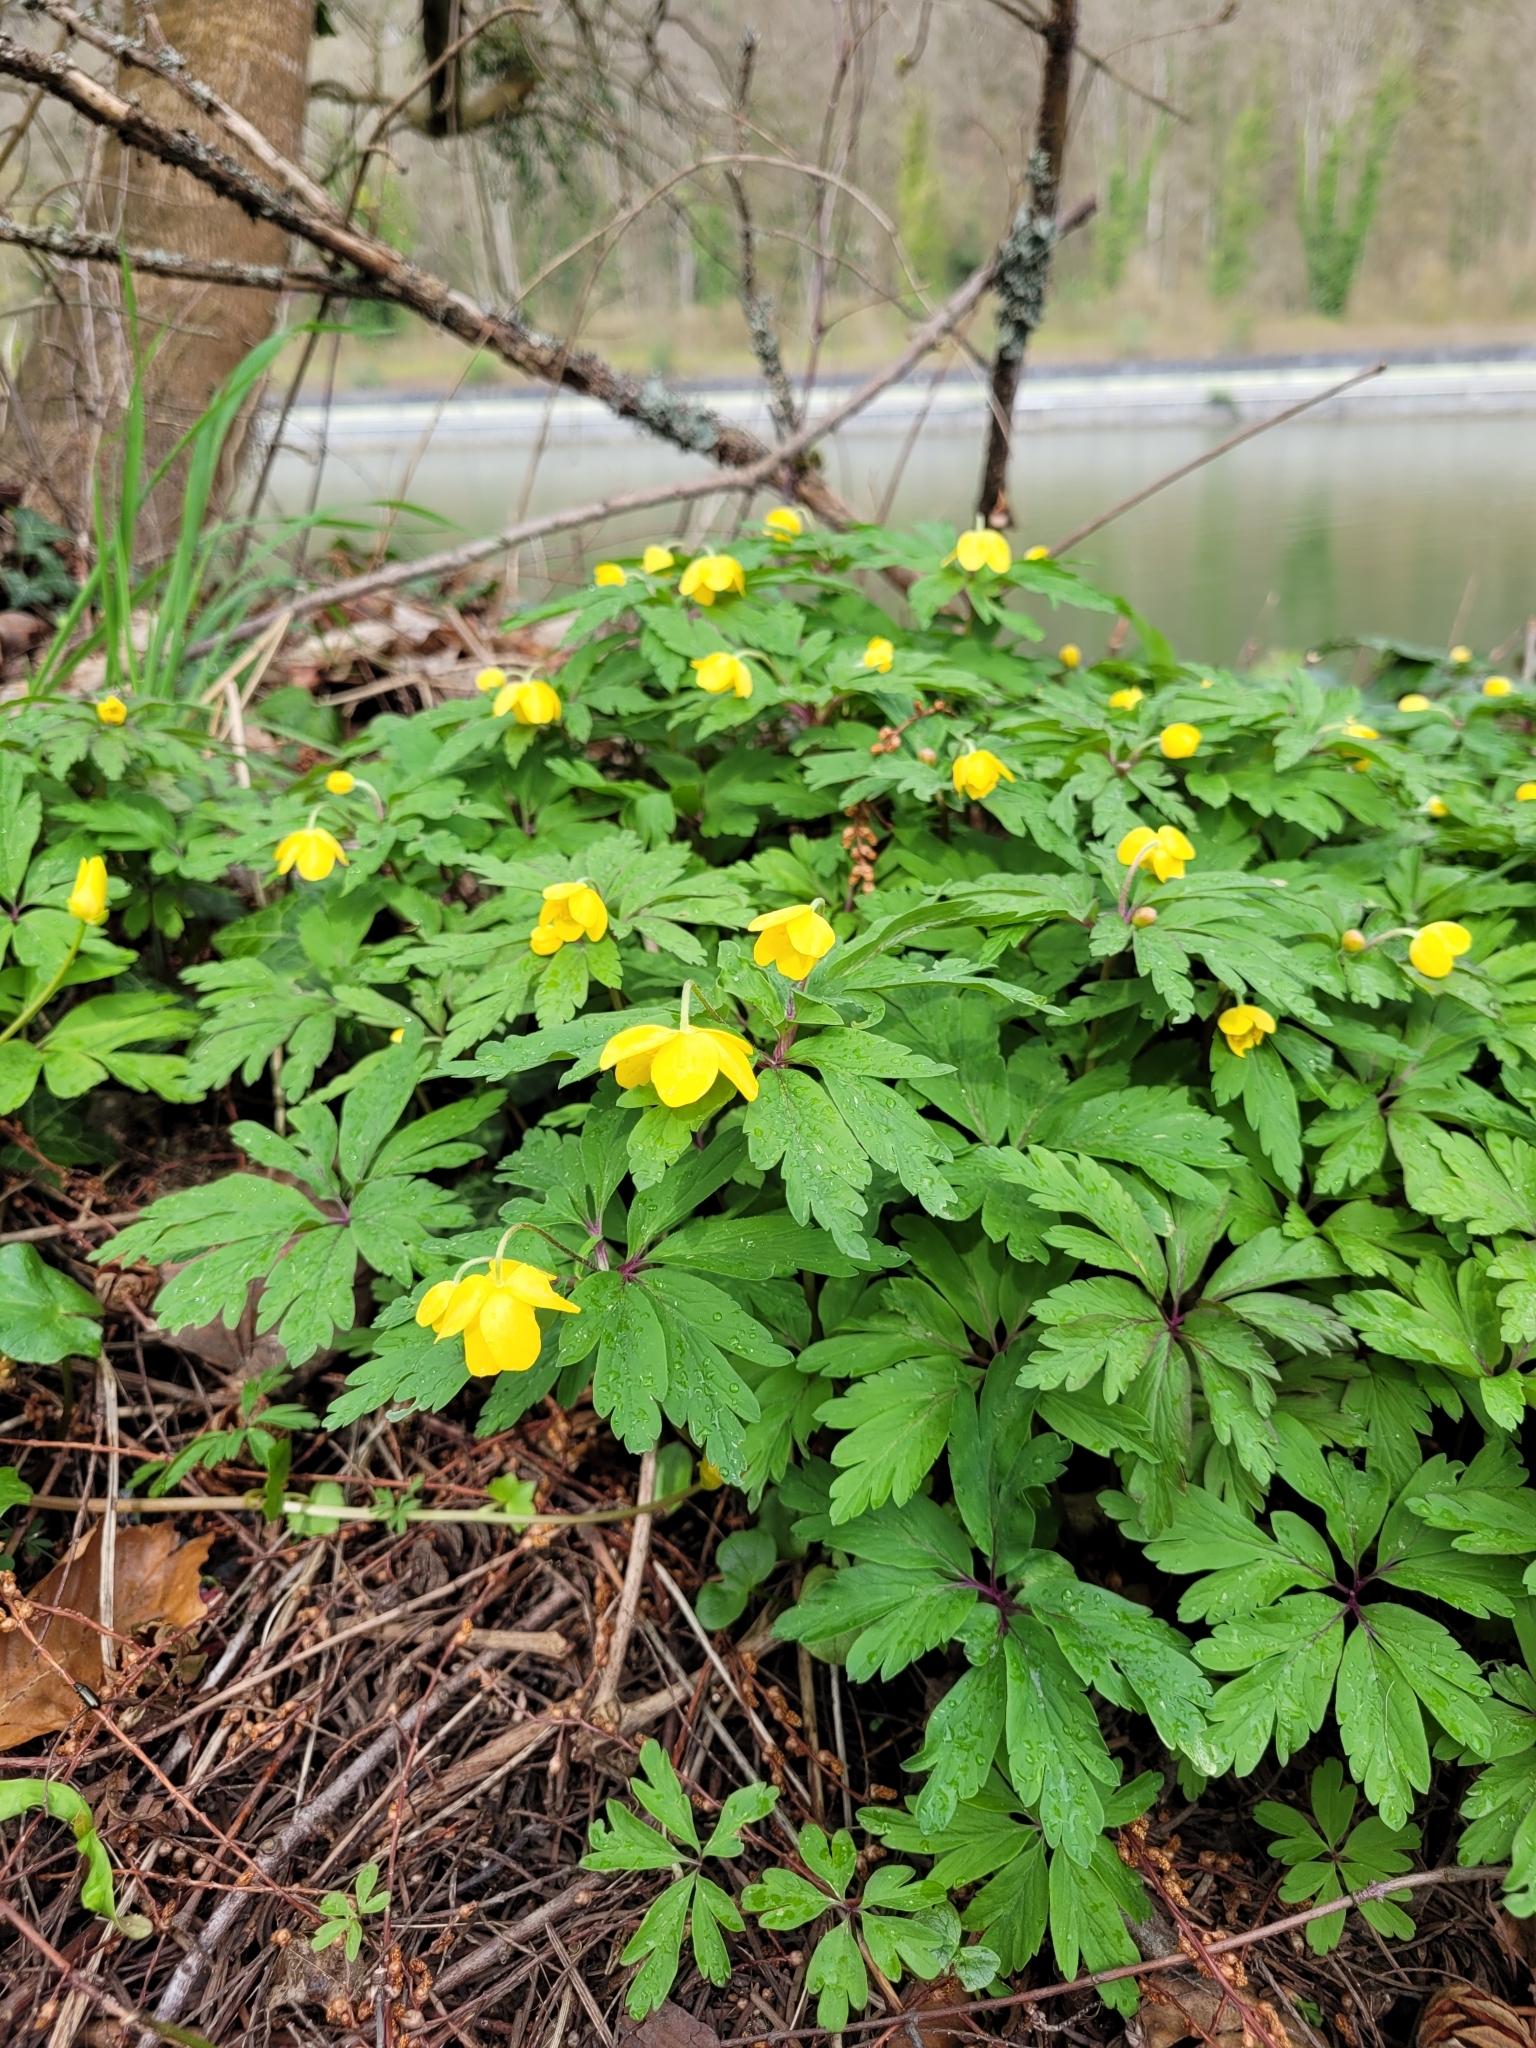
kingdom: Plantae
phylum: Tracheophyta
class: Magnoliopsida
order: Ranunculales
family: Ranunculaceae
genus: Anemone
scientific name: Anemone ranunculoides
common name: Yellow anemone
